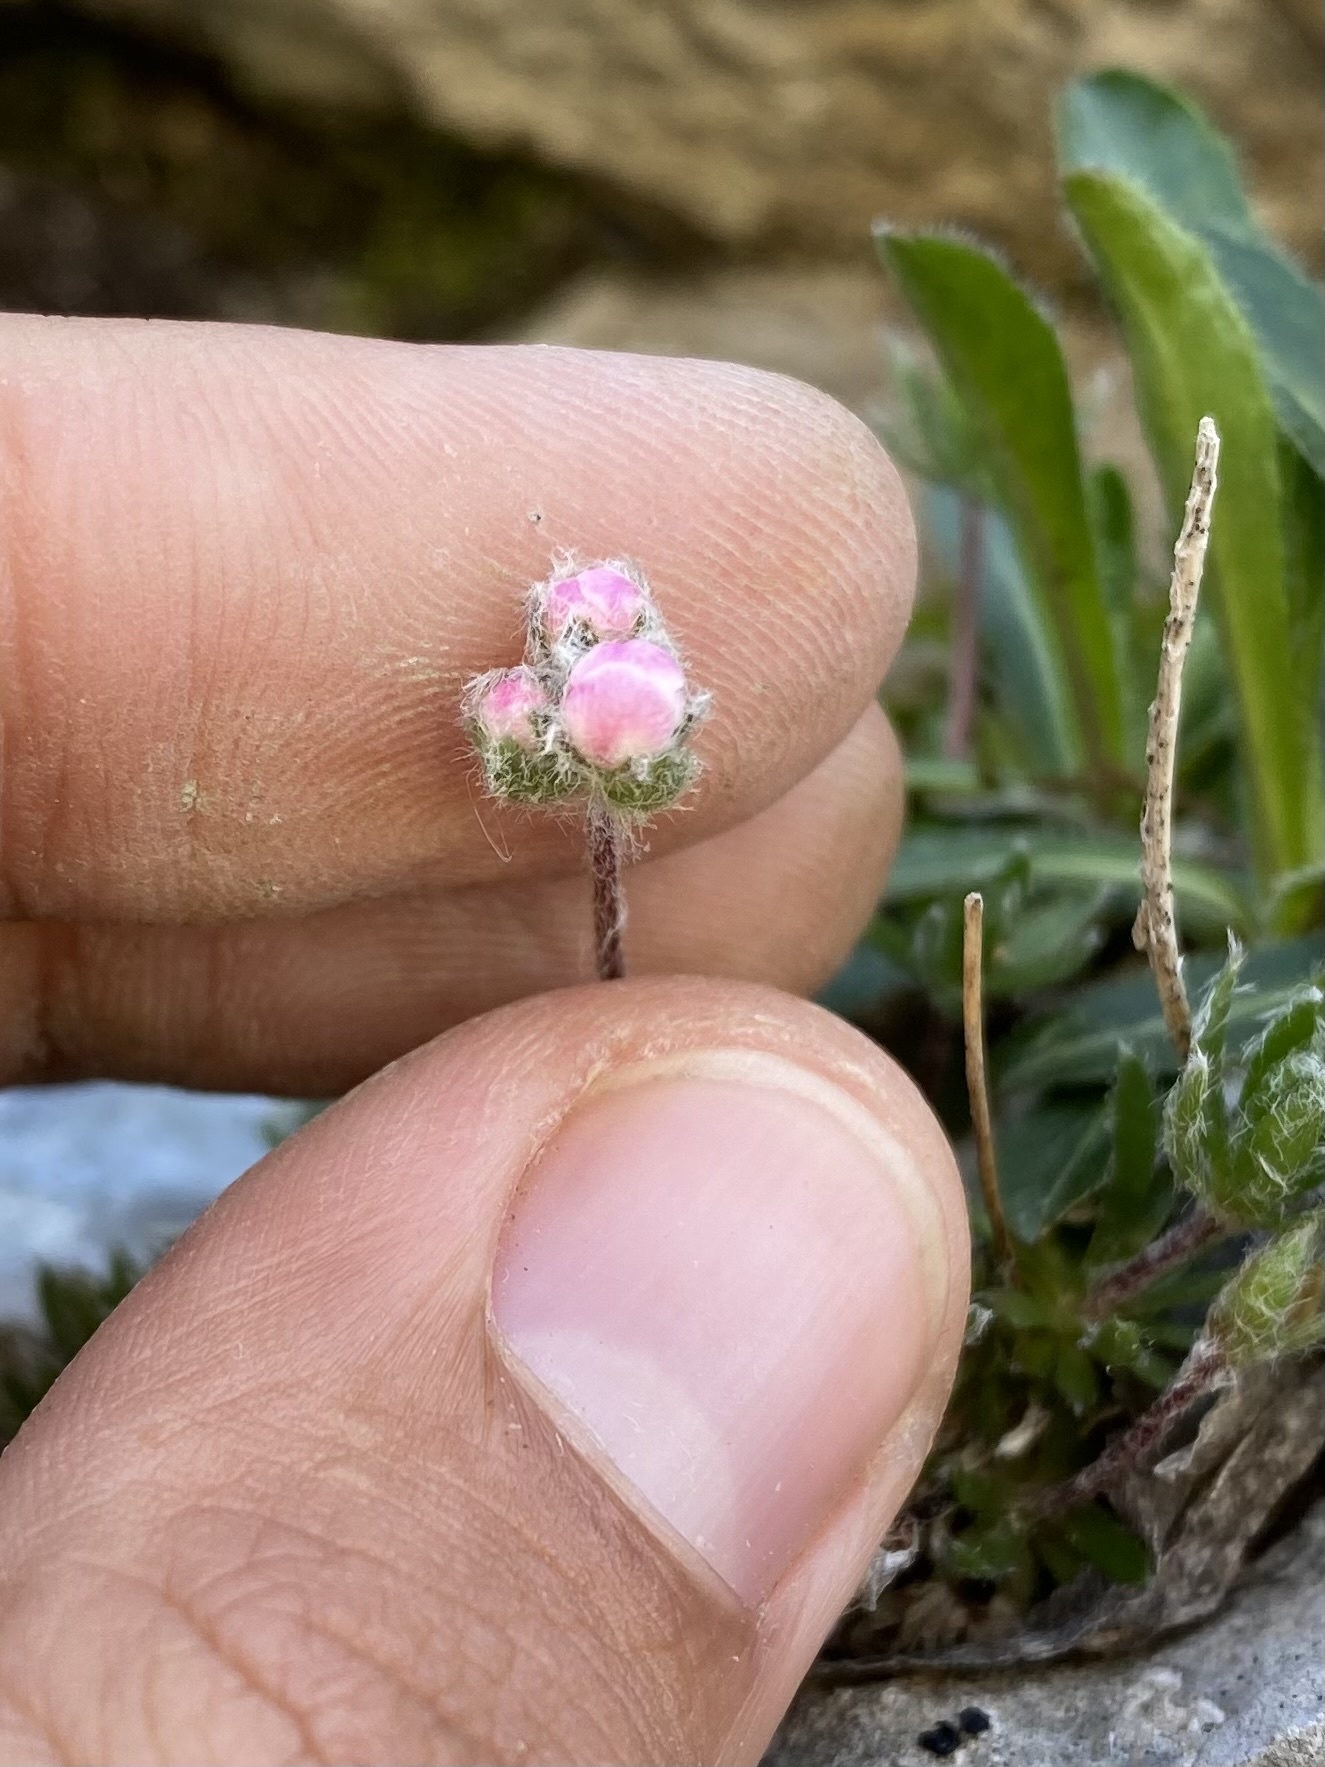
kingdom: Plantae
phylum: Tracheophyta
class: Magnoliopsida
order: Ericales
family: Primulaceae
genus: Androsace
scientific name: Androsace villosa
